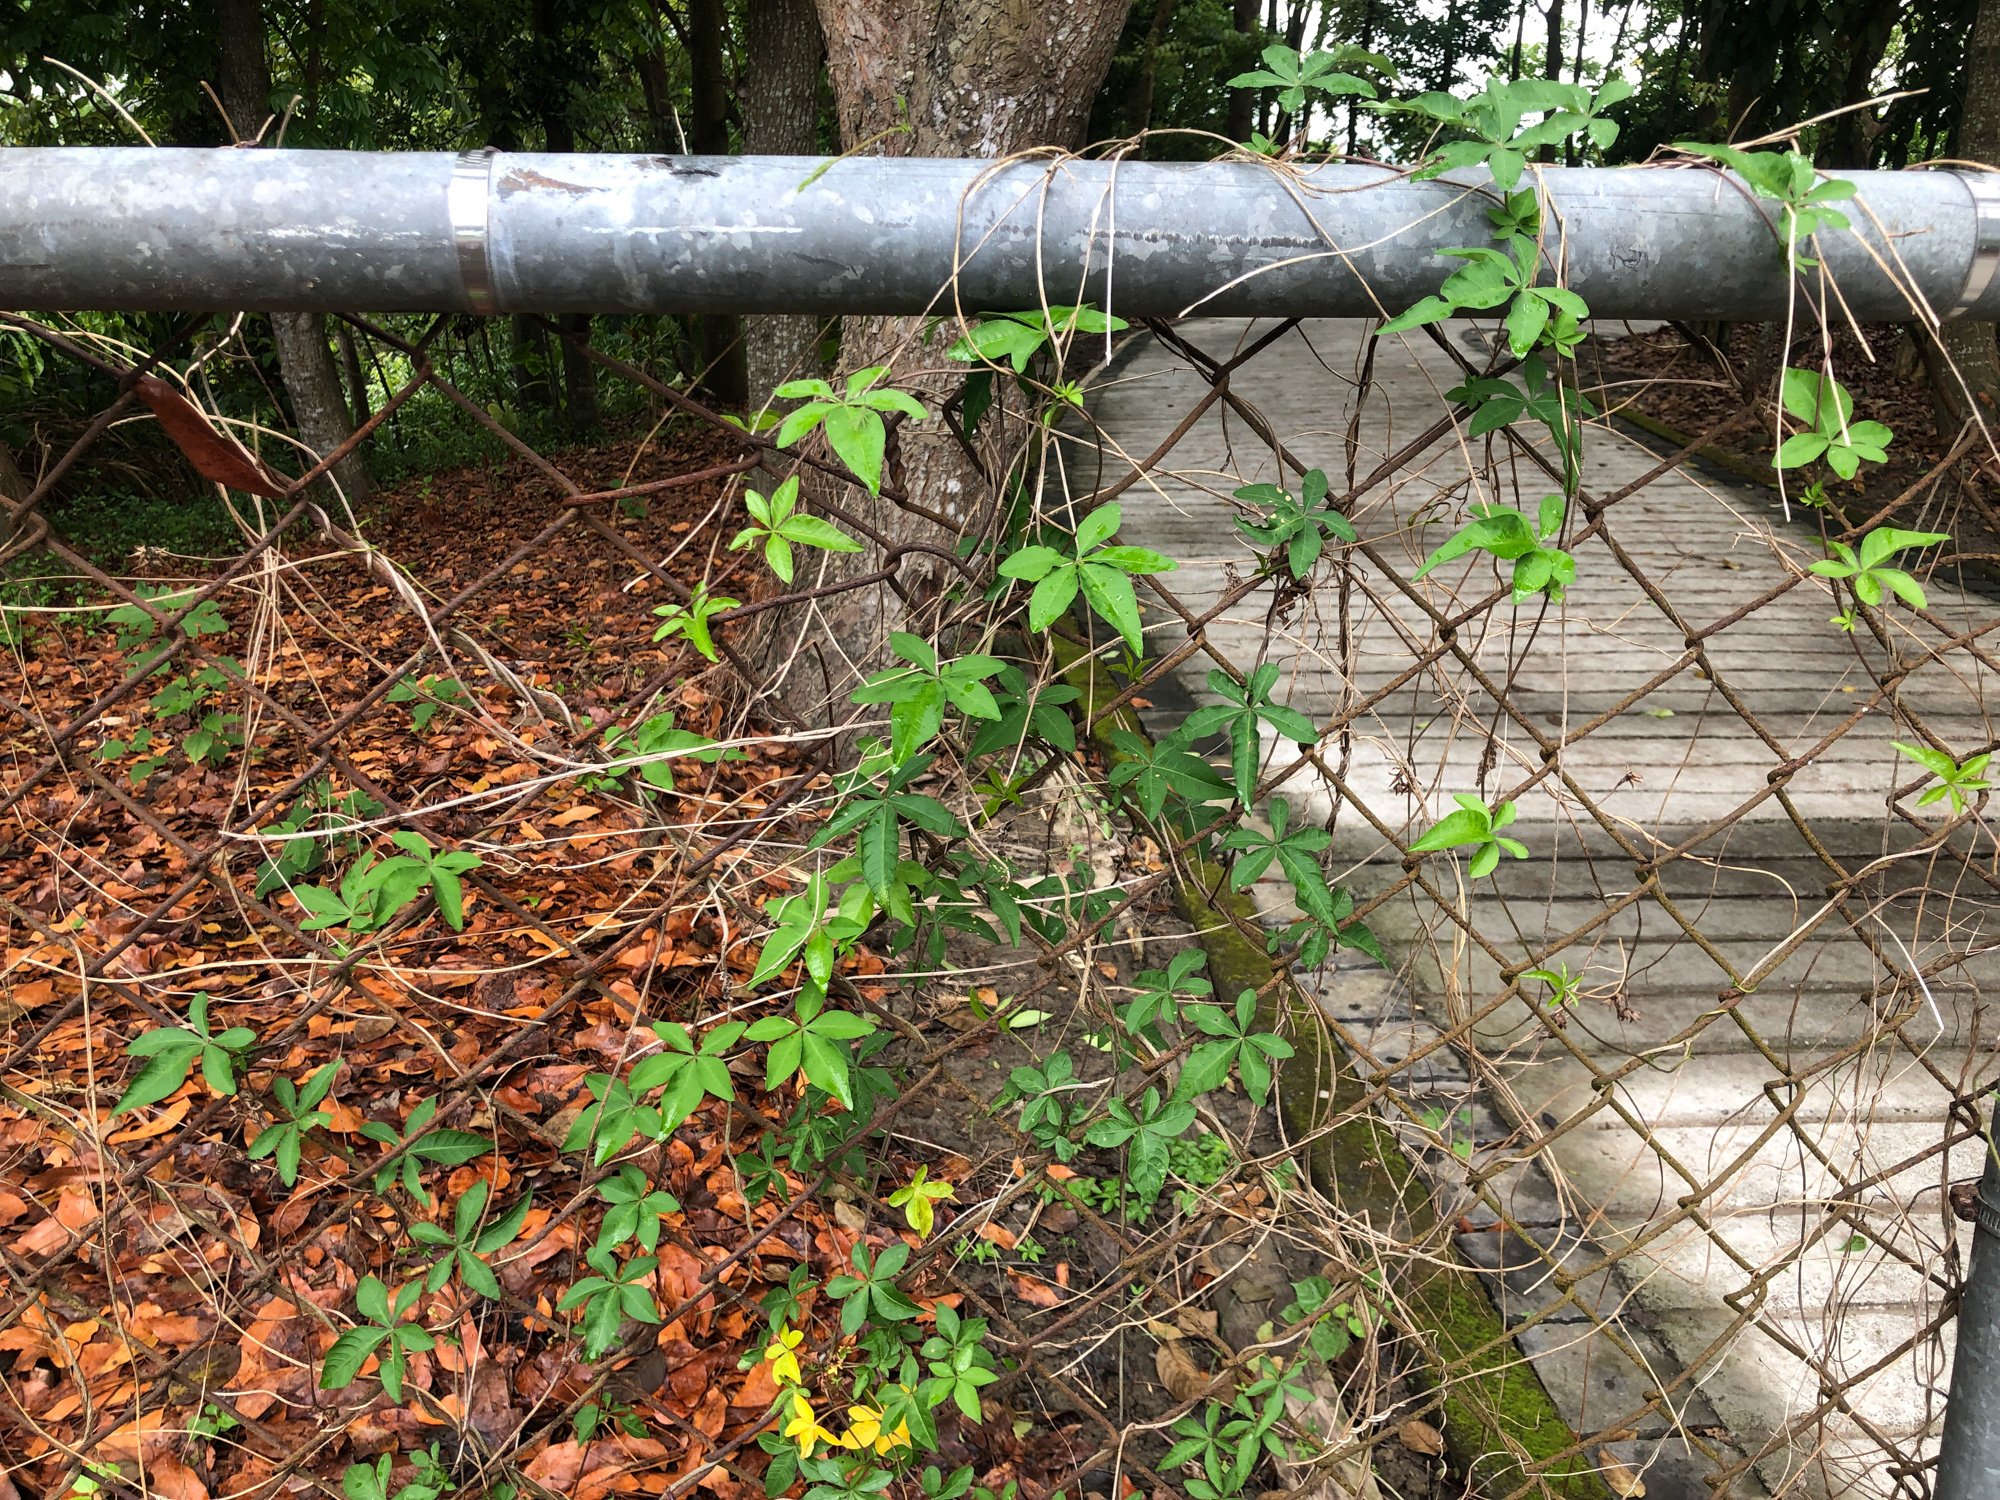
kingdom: Plantae
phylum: Tracheophyta
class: Magnoliopsida
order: Solanales
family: Convolvulaceae
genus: Ipomoea
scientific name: Ipomoea cairica
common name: Mile a minute vine
